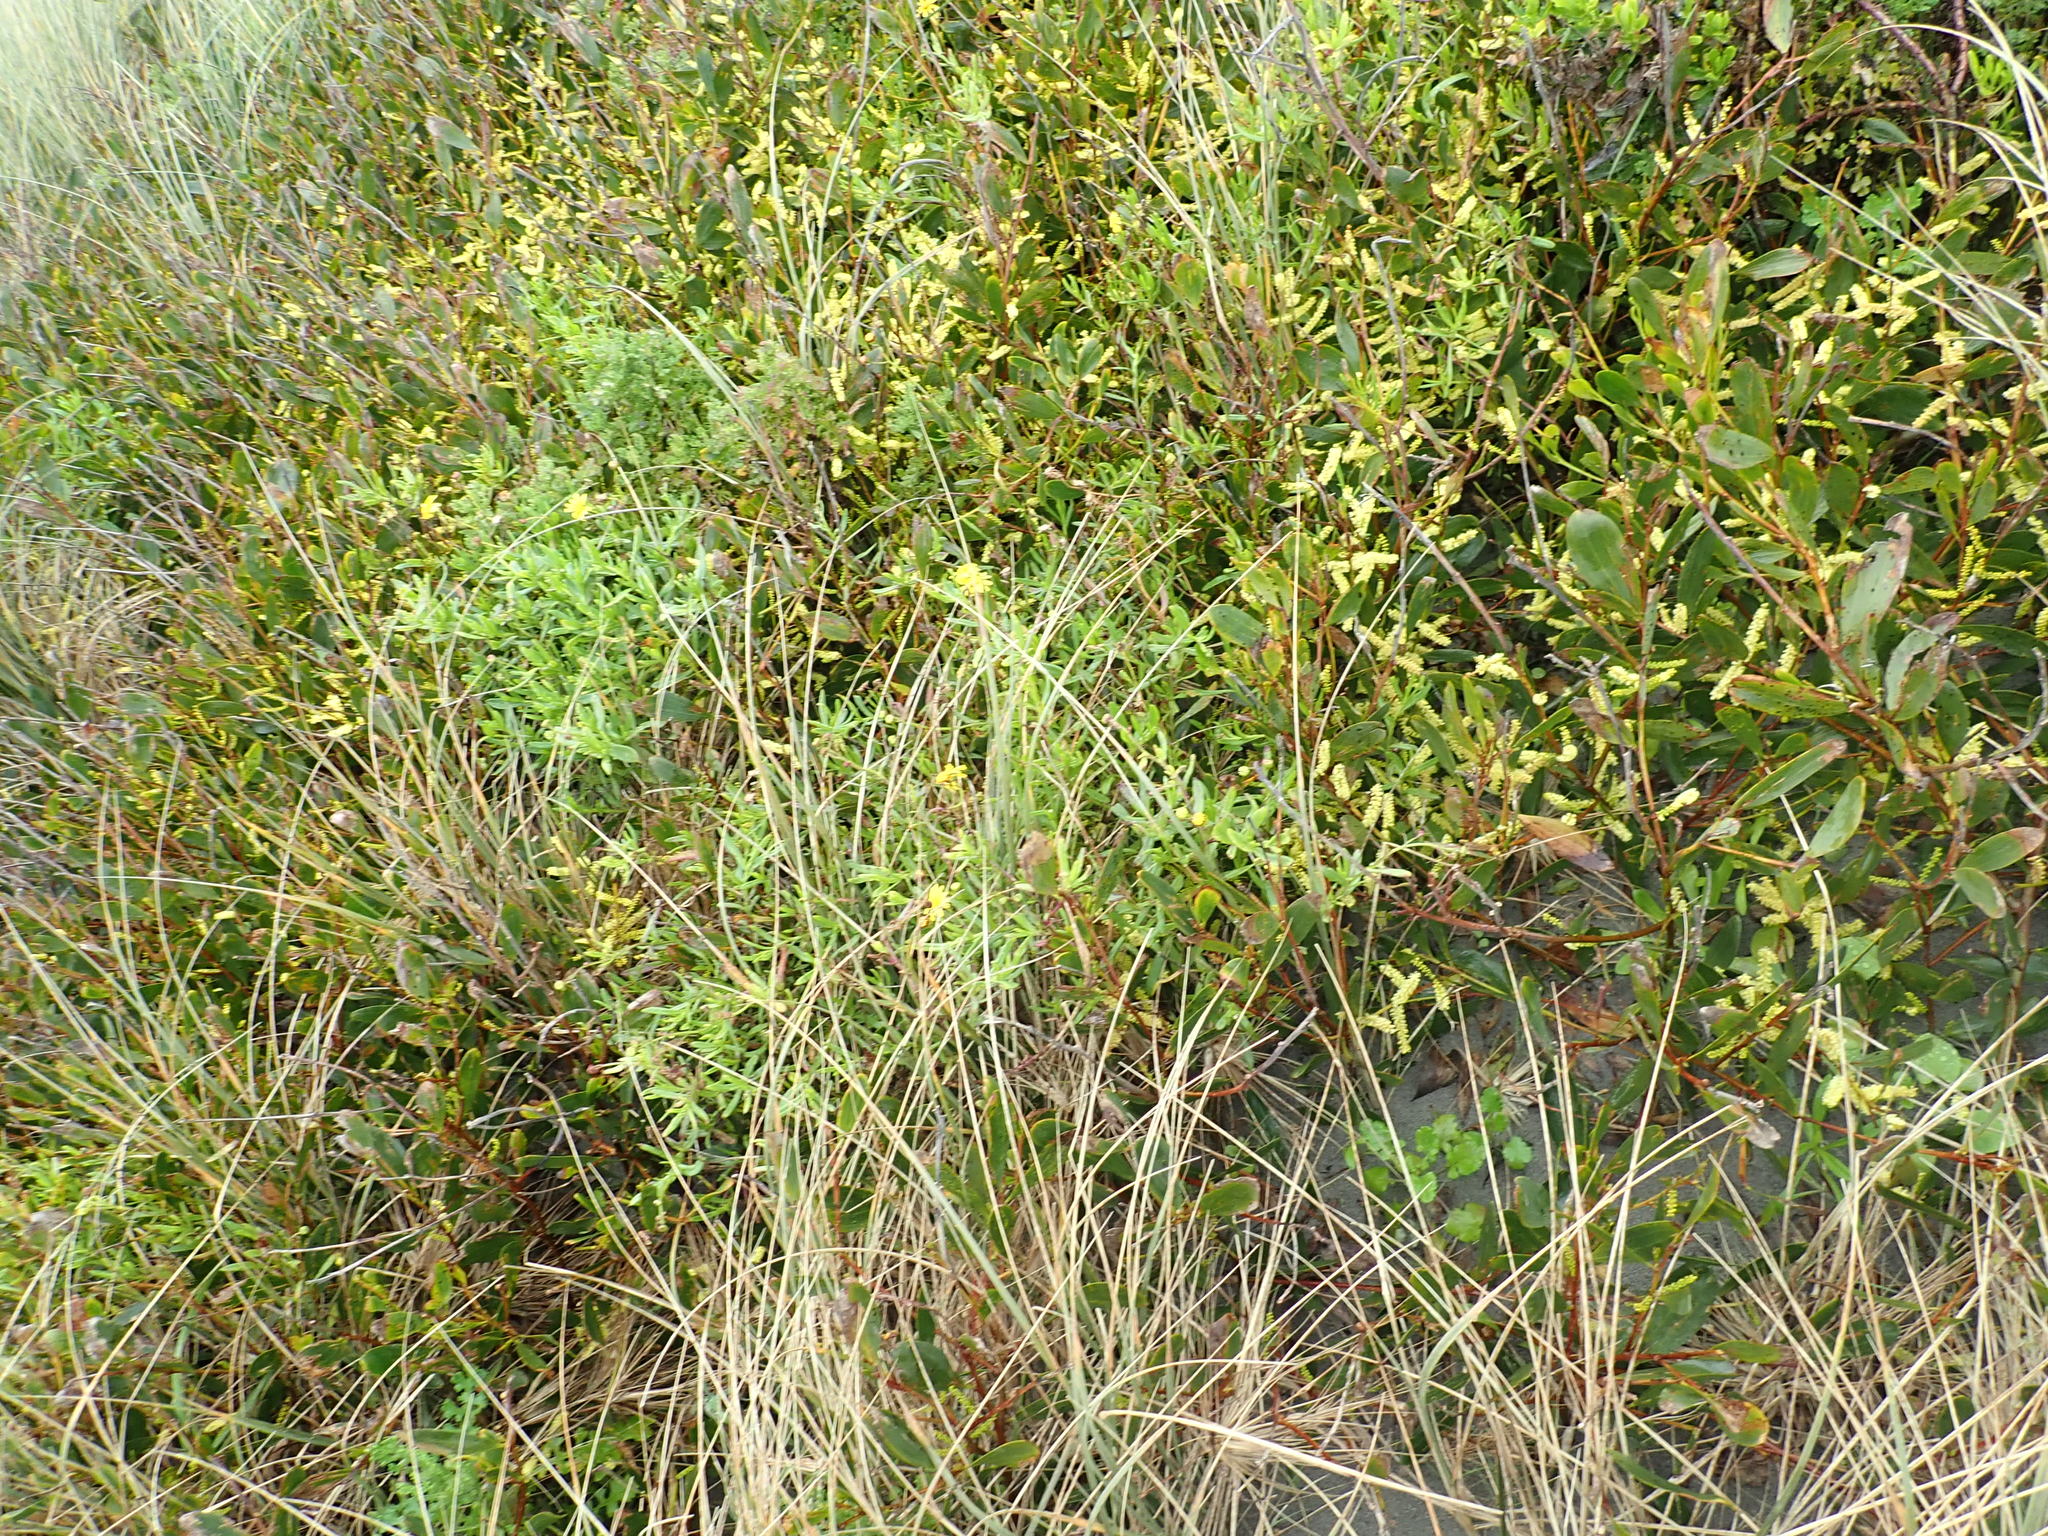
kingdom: Plantae
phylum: Tracheophyta
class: Magnoliopsida
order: Asterales
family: Asteraceae
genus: Senecio
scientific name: Senecio skirrhodon
